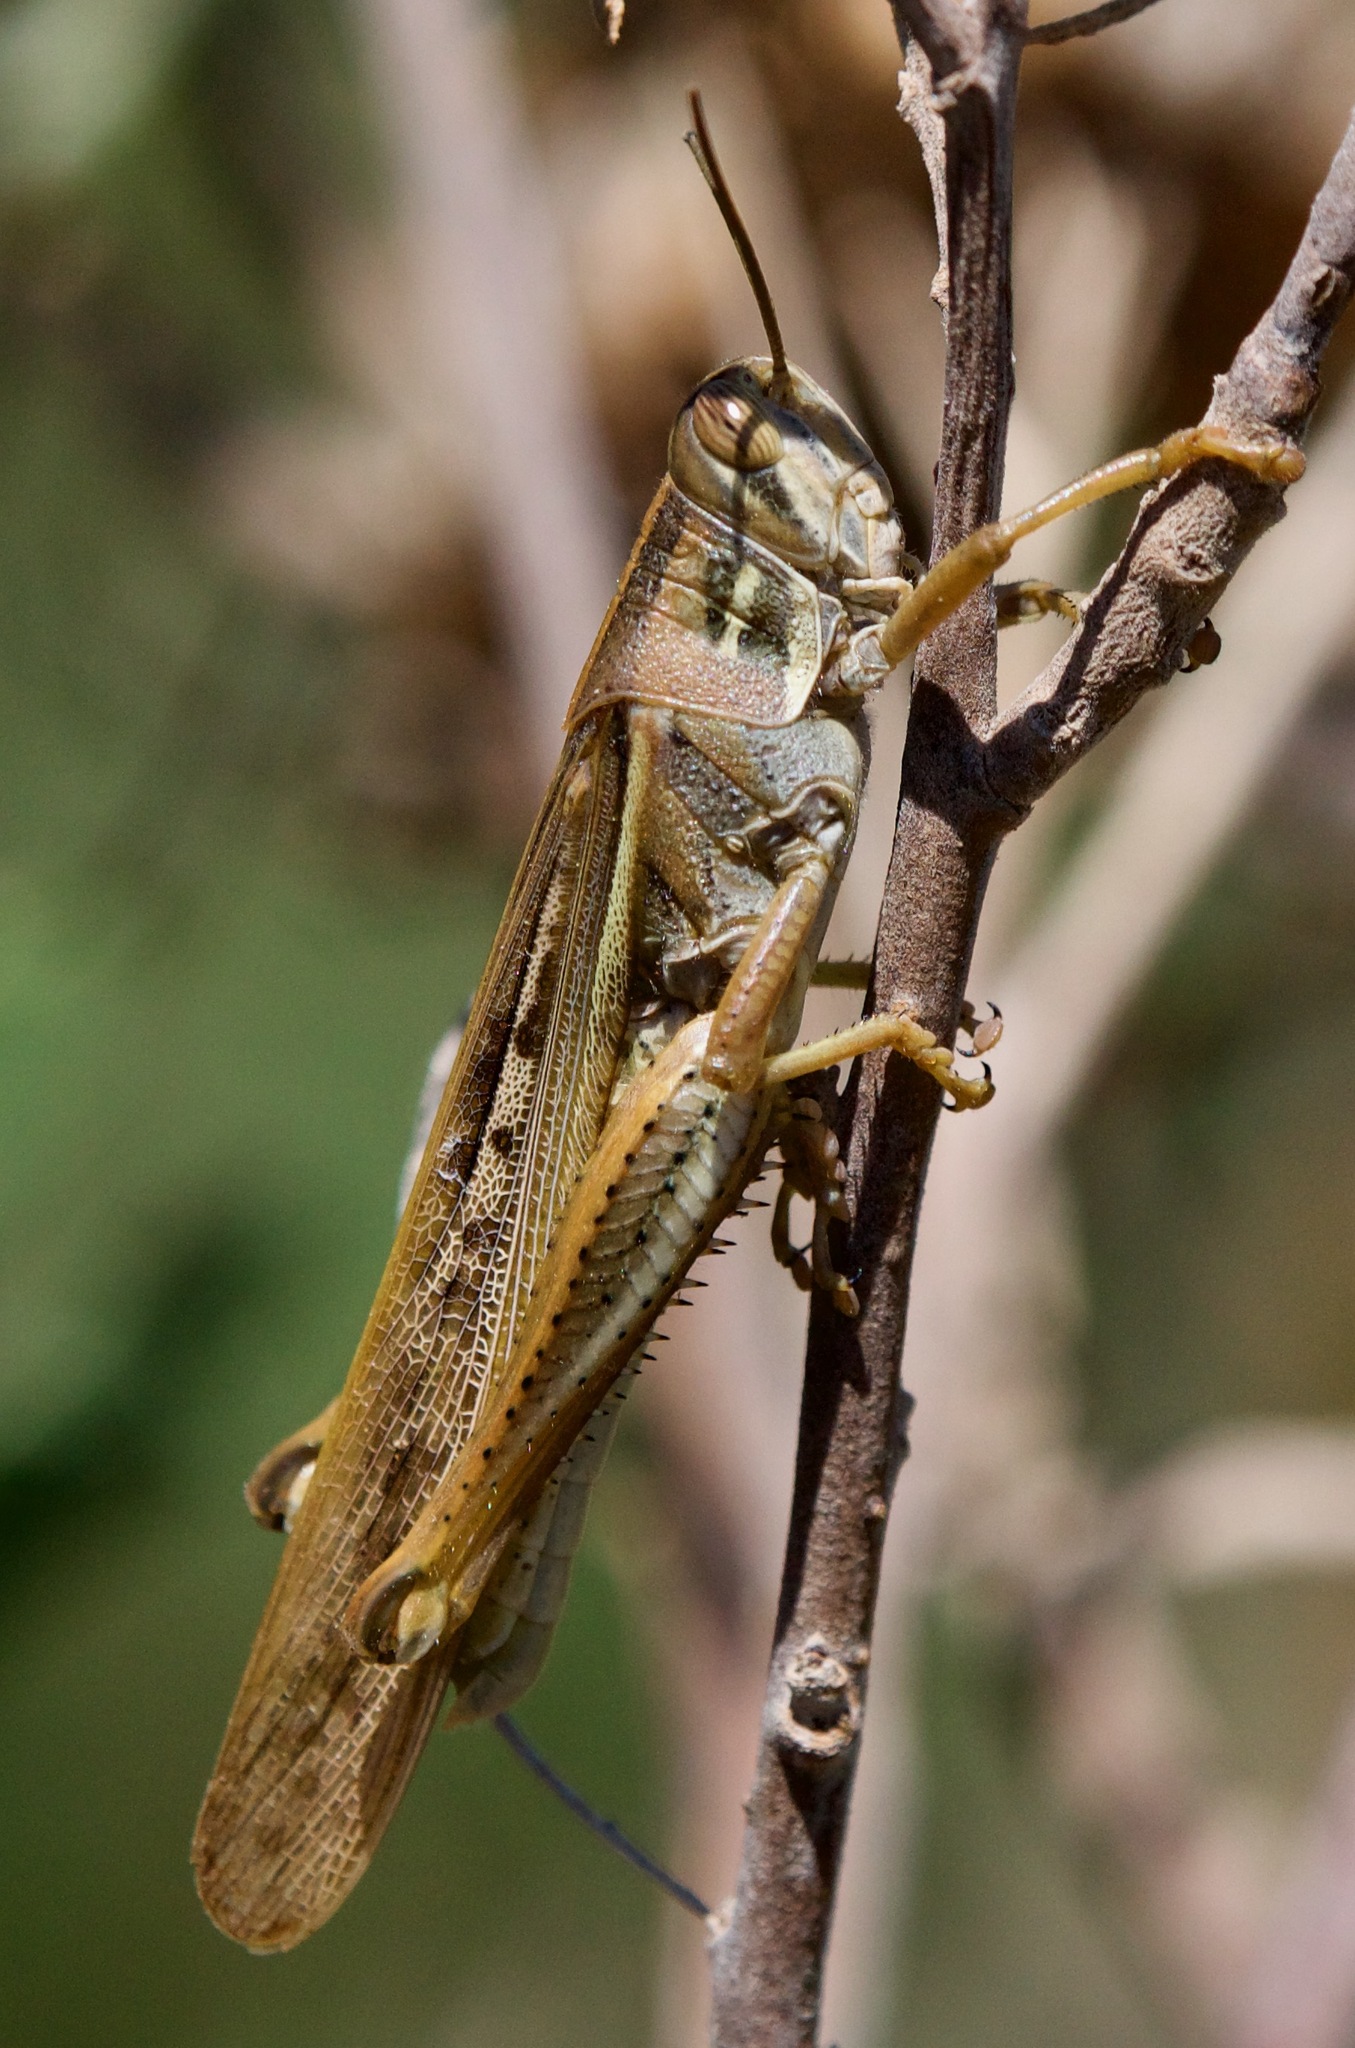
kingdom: Animalia
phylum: Arthropoda
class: Insecta
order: Orthoptera
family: Acrididae
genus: Schistocerca
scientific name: Schistocerca cancellata
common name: South american locust
